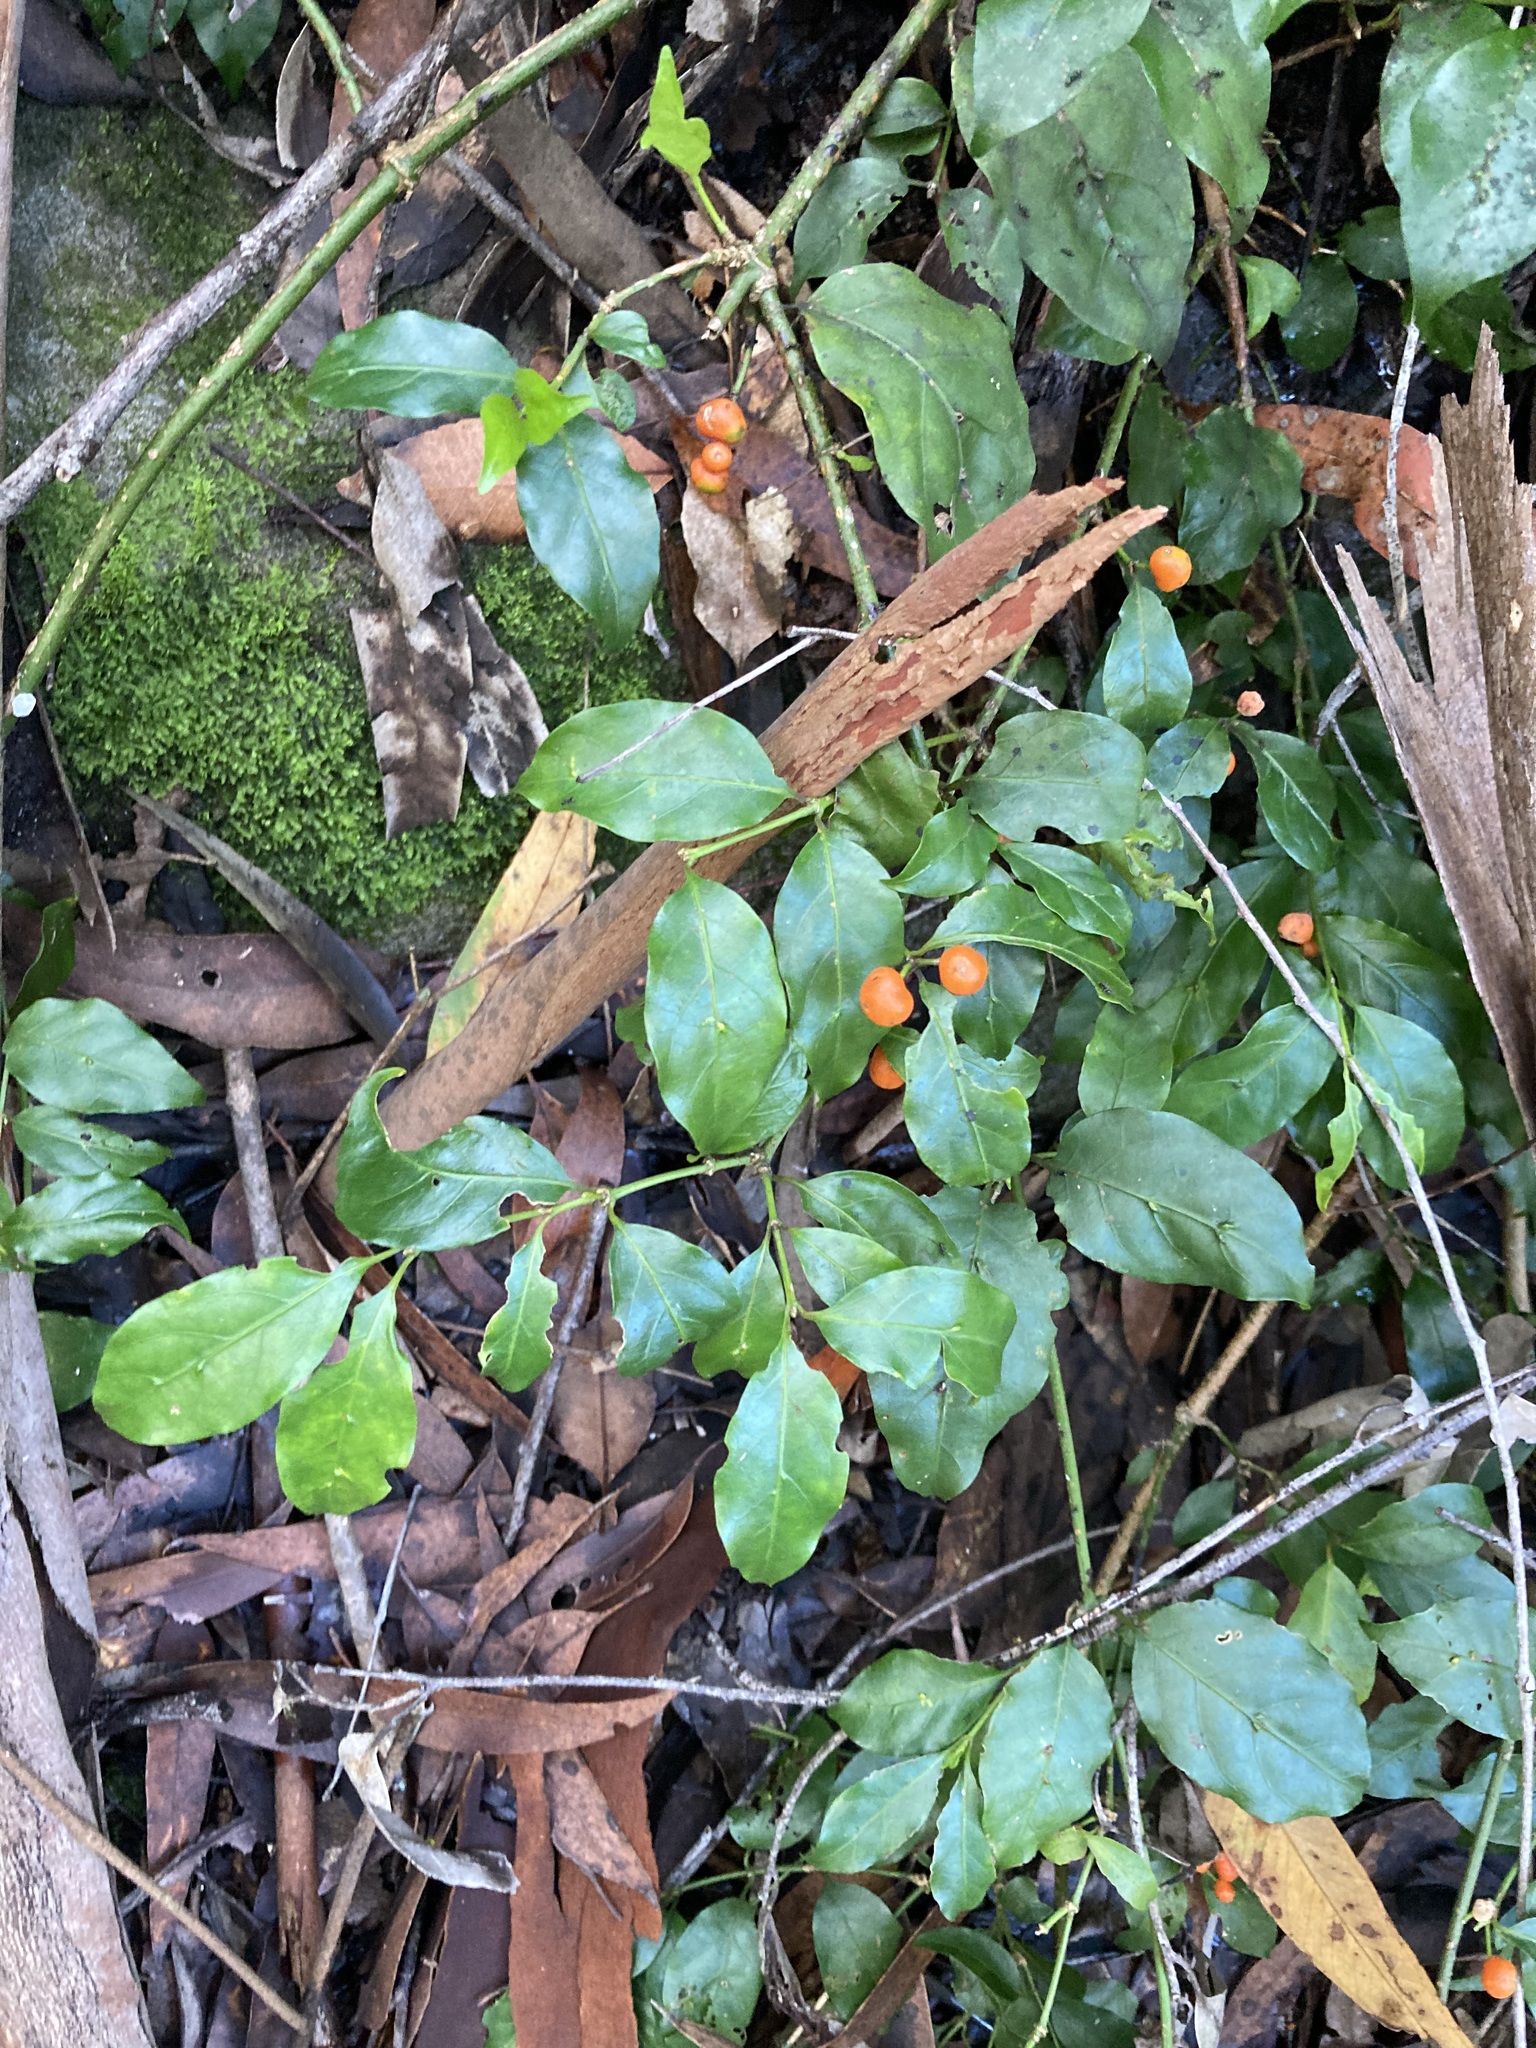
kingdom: Plantae
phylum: Tracheophyta
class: Magnoliopsida
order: Gentianales
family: Rubiaceae
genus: Gynochthodes
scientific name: Gynochthodes jasminoides
